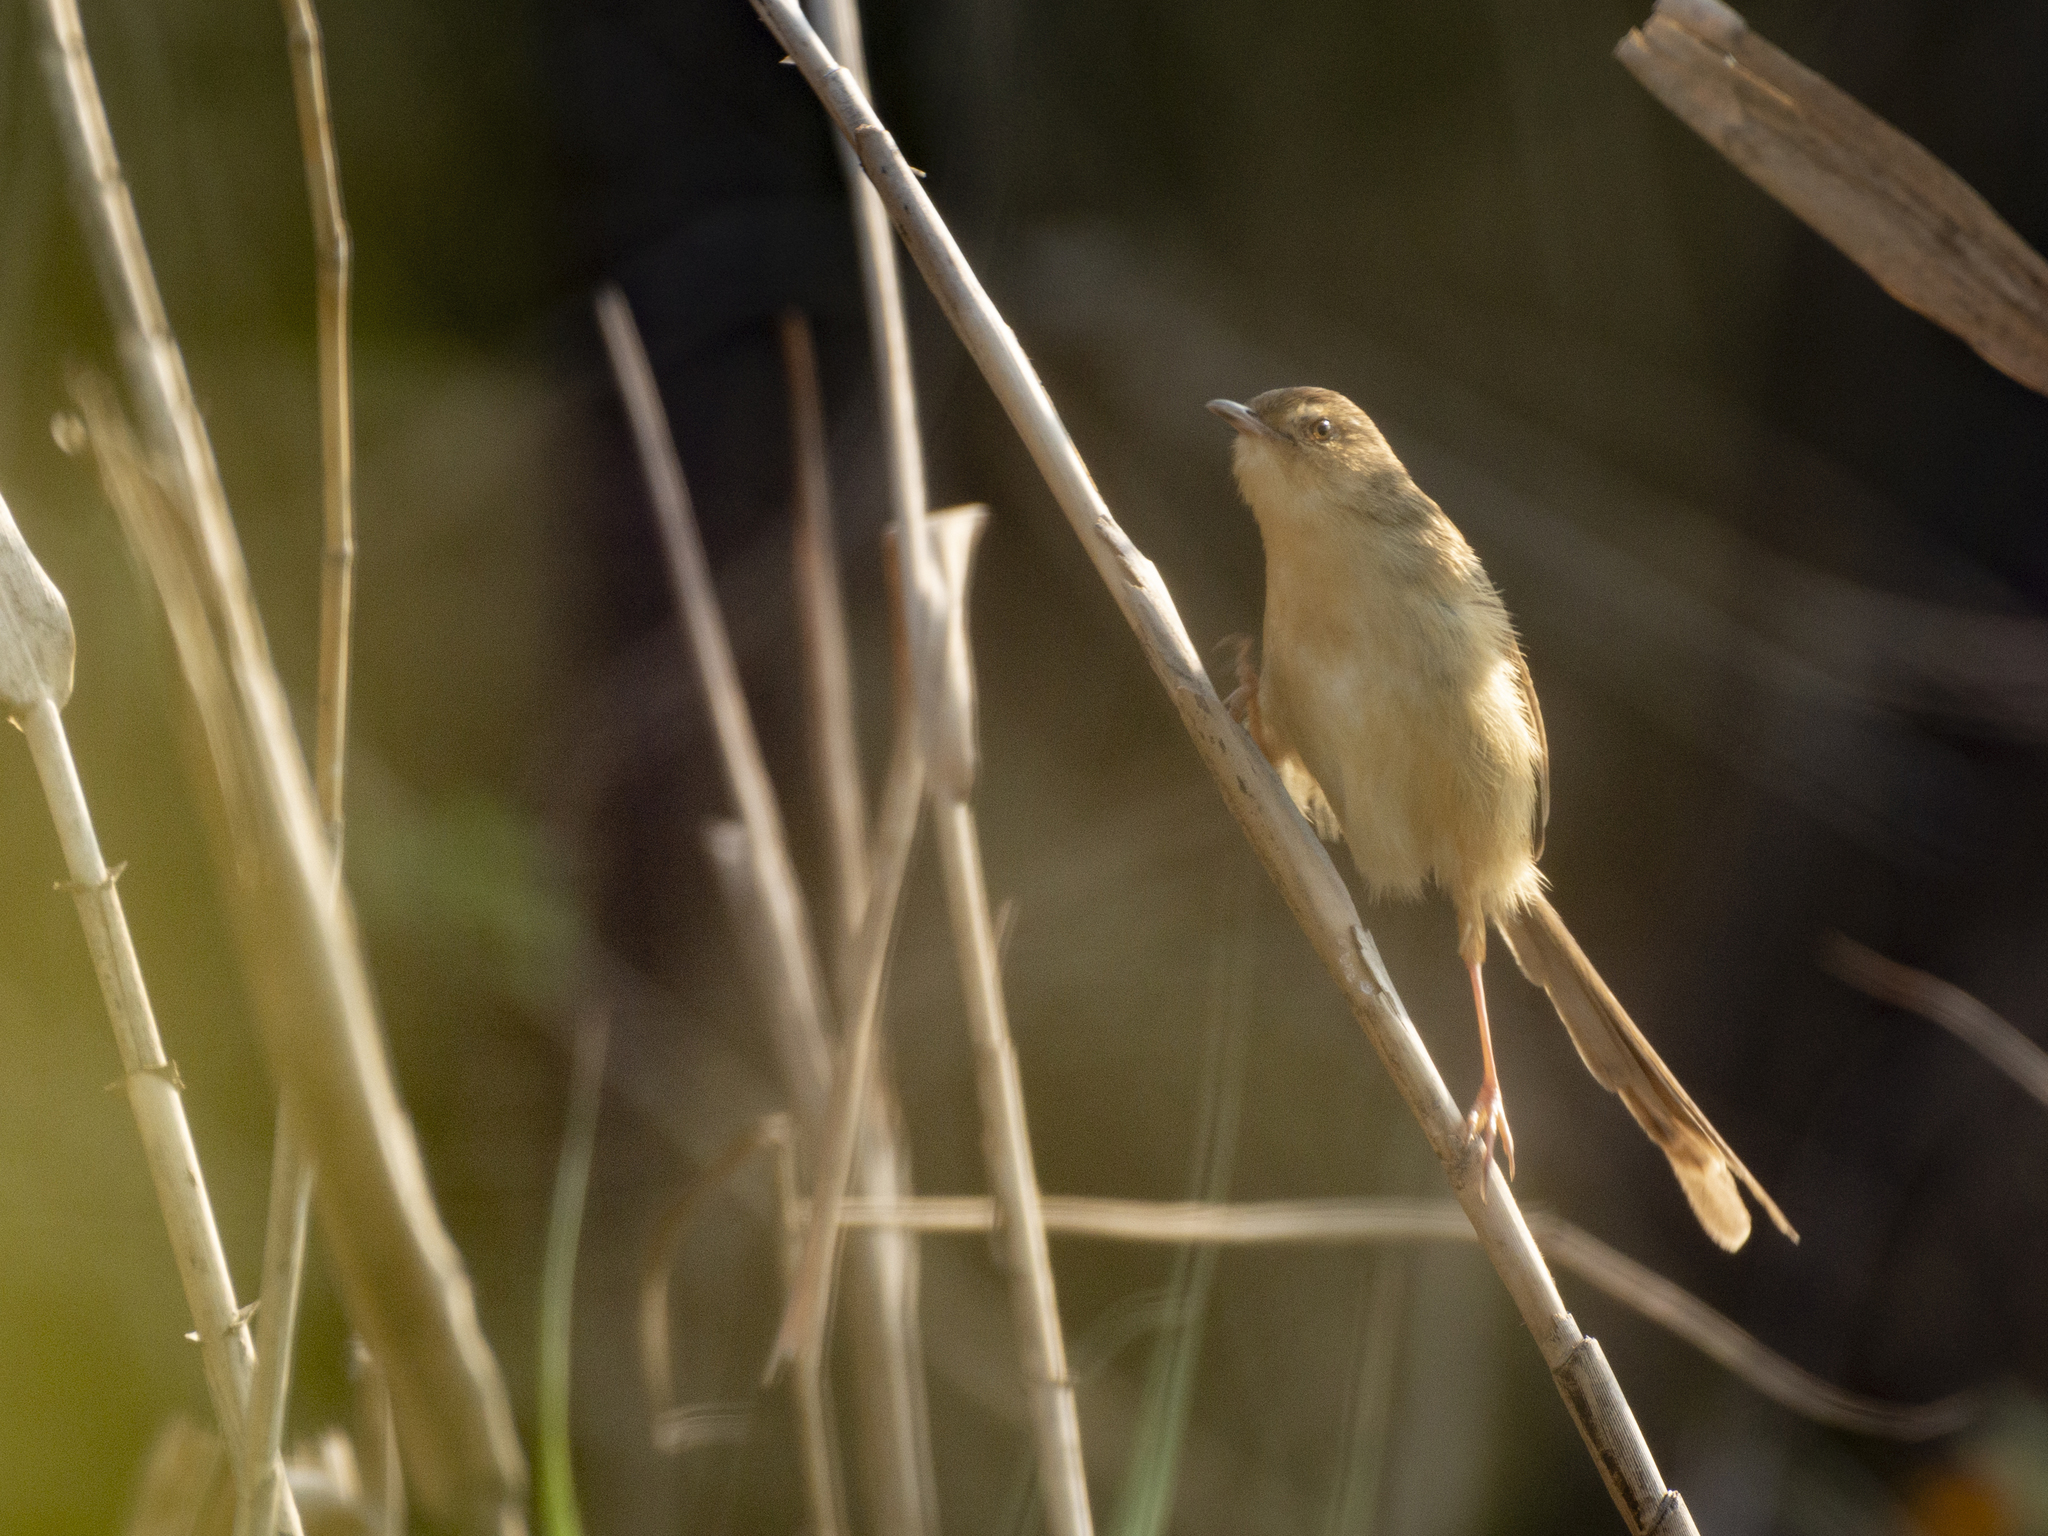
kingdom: Animalia
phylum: Chordata
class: Aves
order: Passeriformes
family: Cisticolidae
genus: Prinia
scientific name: Prinia inornata
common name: Plain prinia
